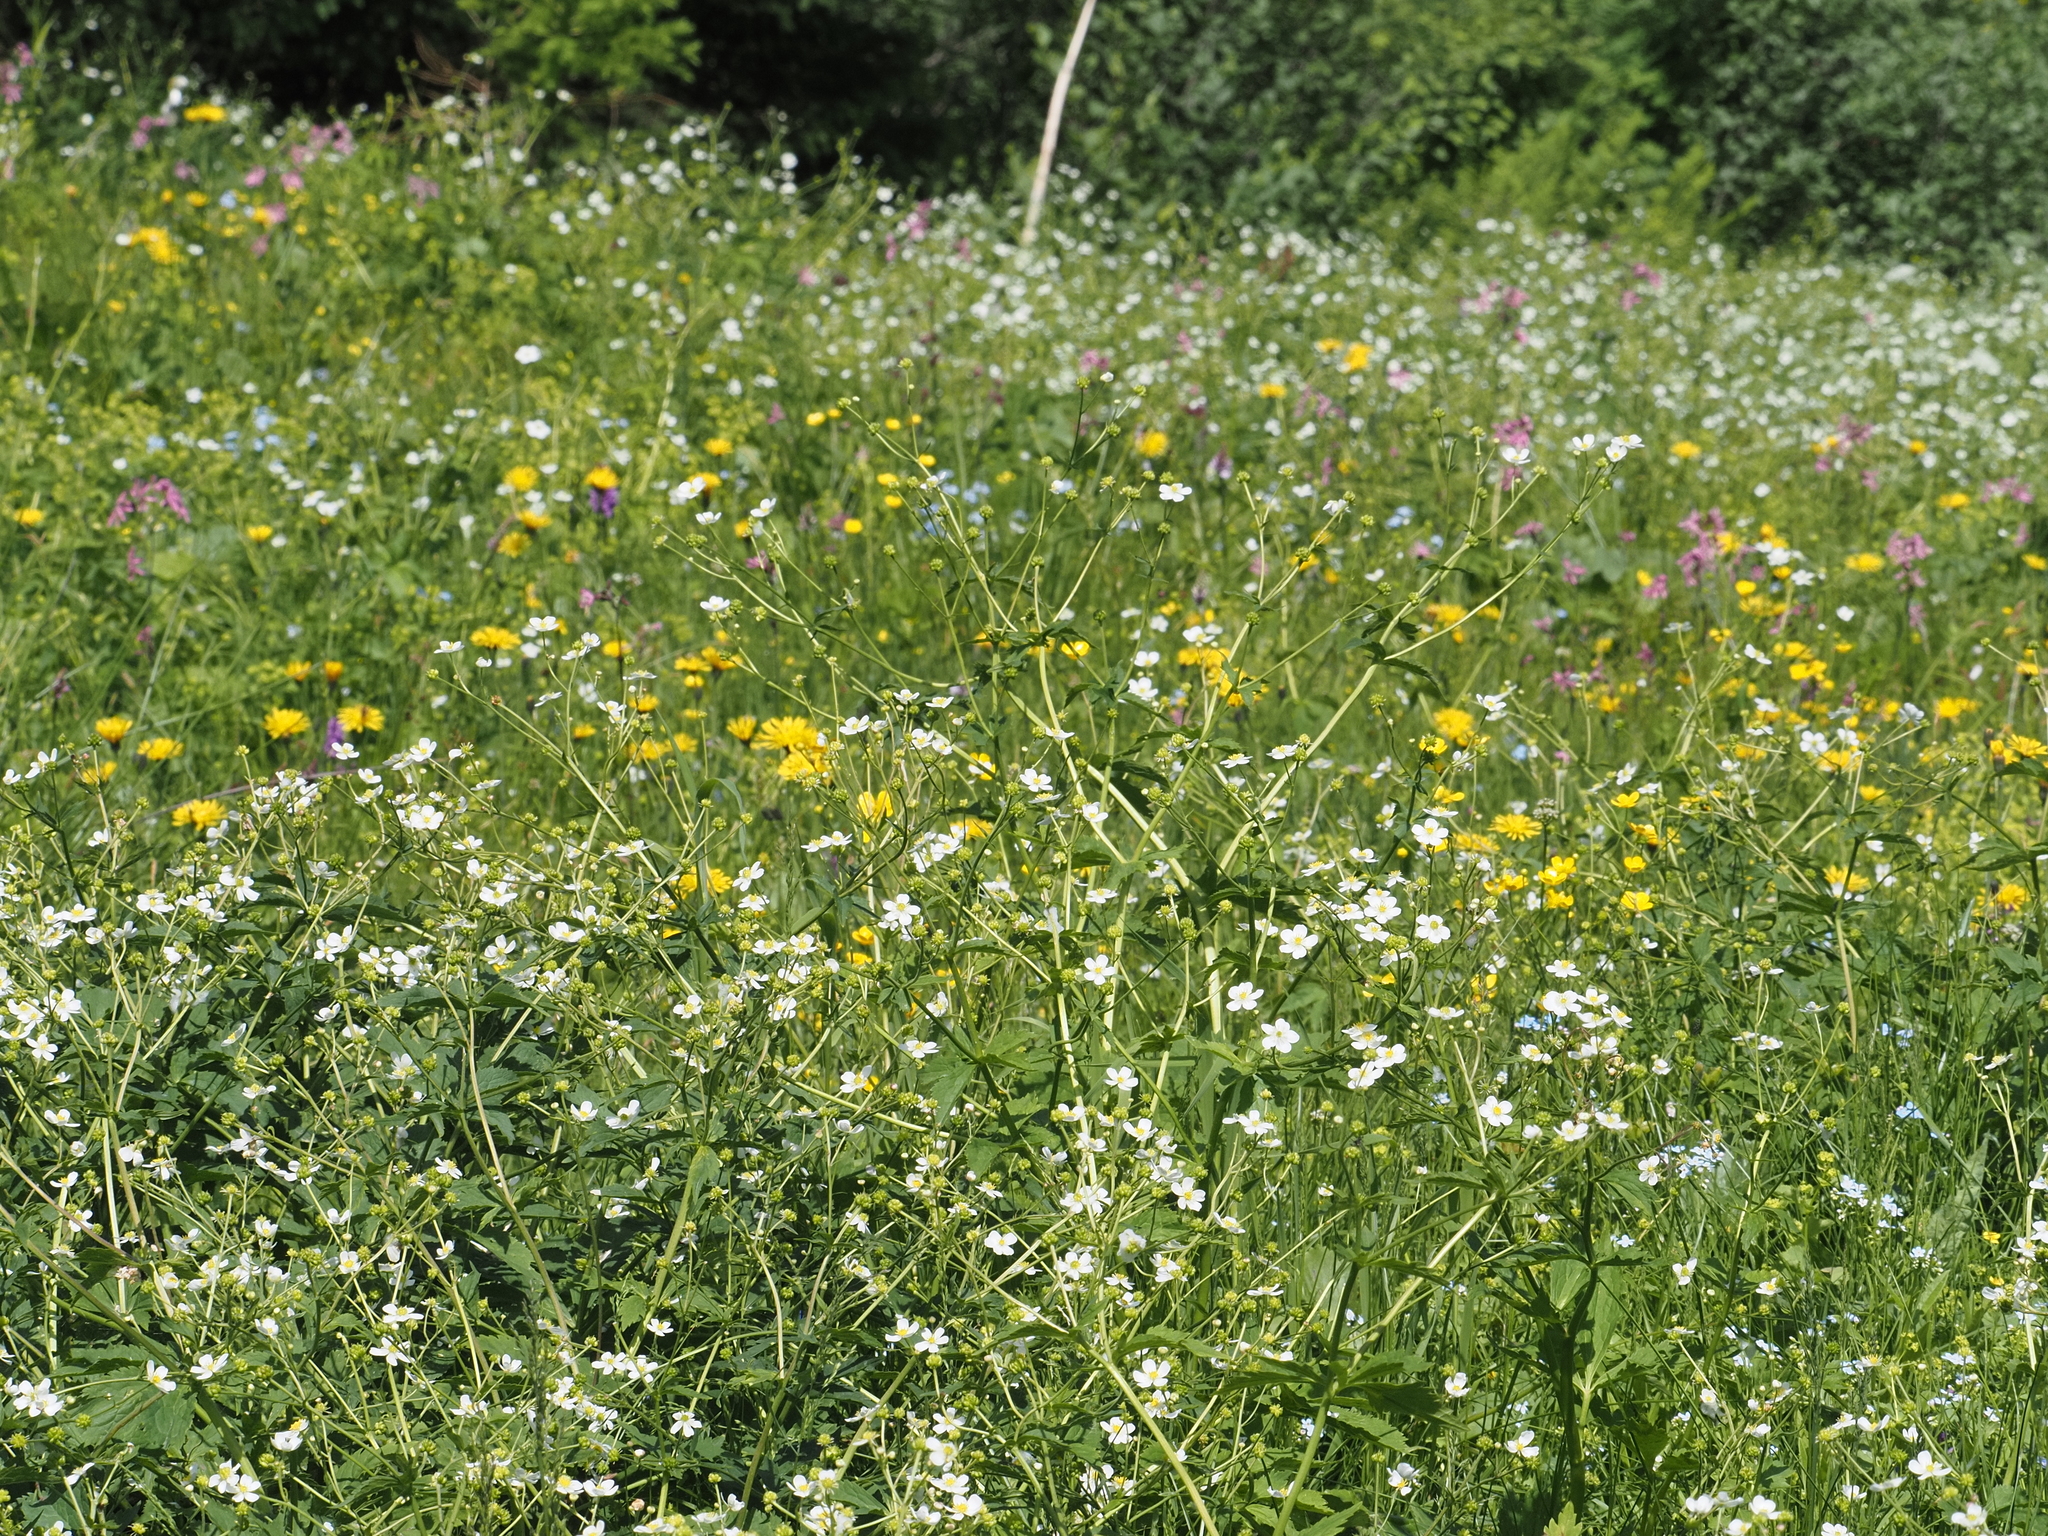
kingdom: Plantae
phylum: Tracheophyta
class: Magnoliopsida
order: Ranunculales
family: Ranunculaceae
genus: Ranunculus
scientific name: Ranunculus aconitifolius
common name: Aconite-leaved buttercup
